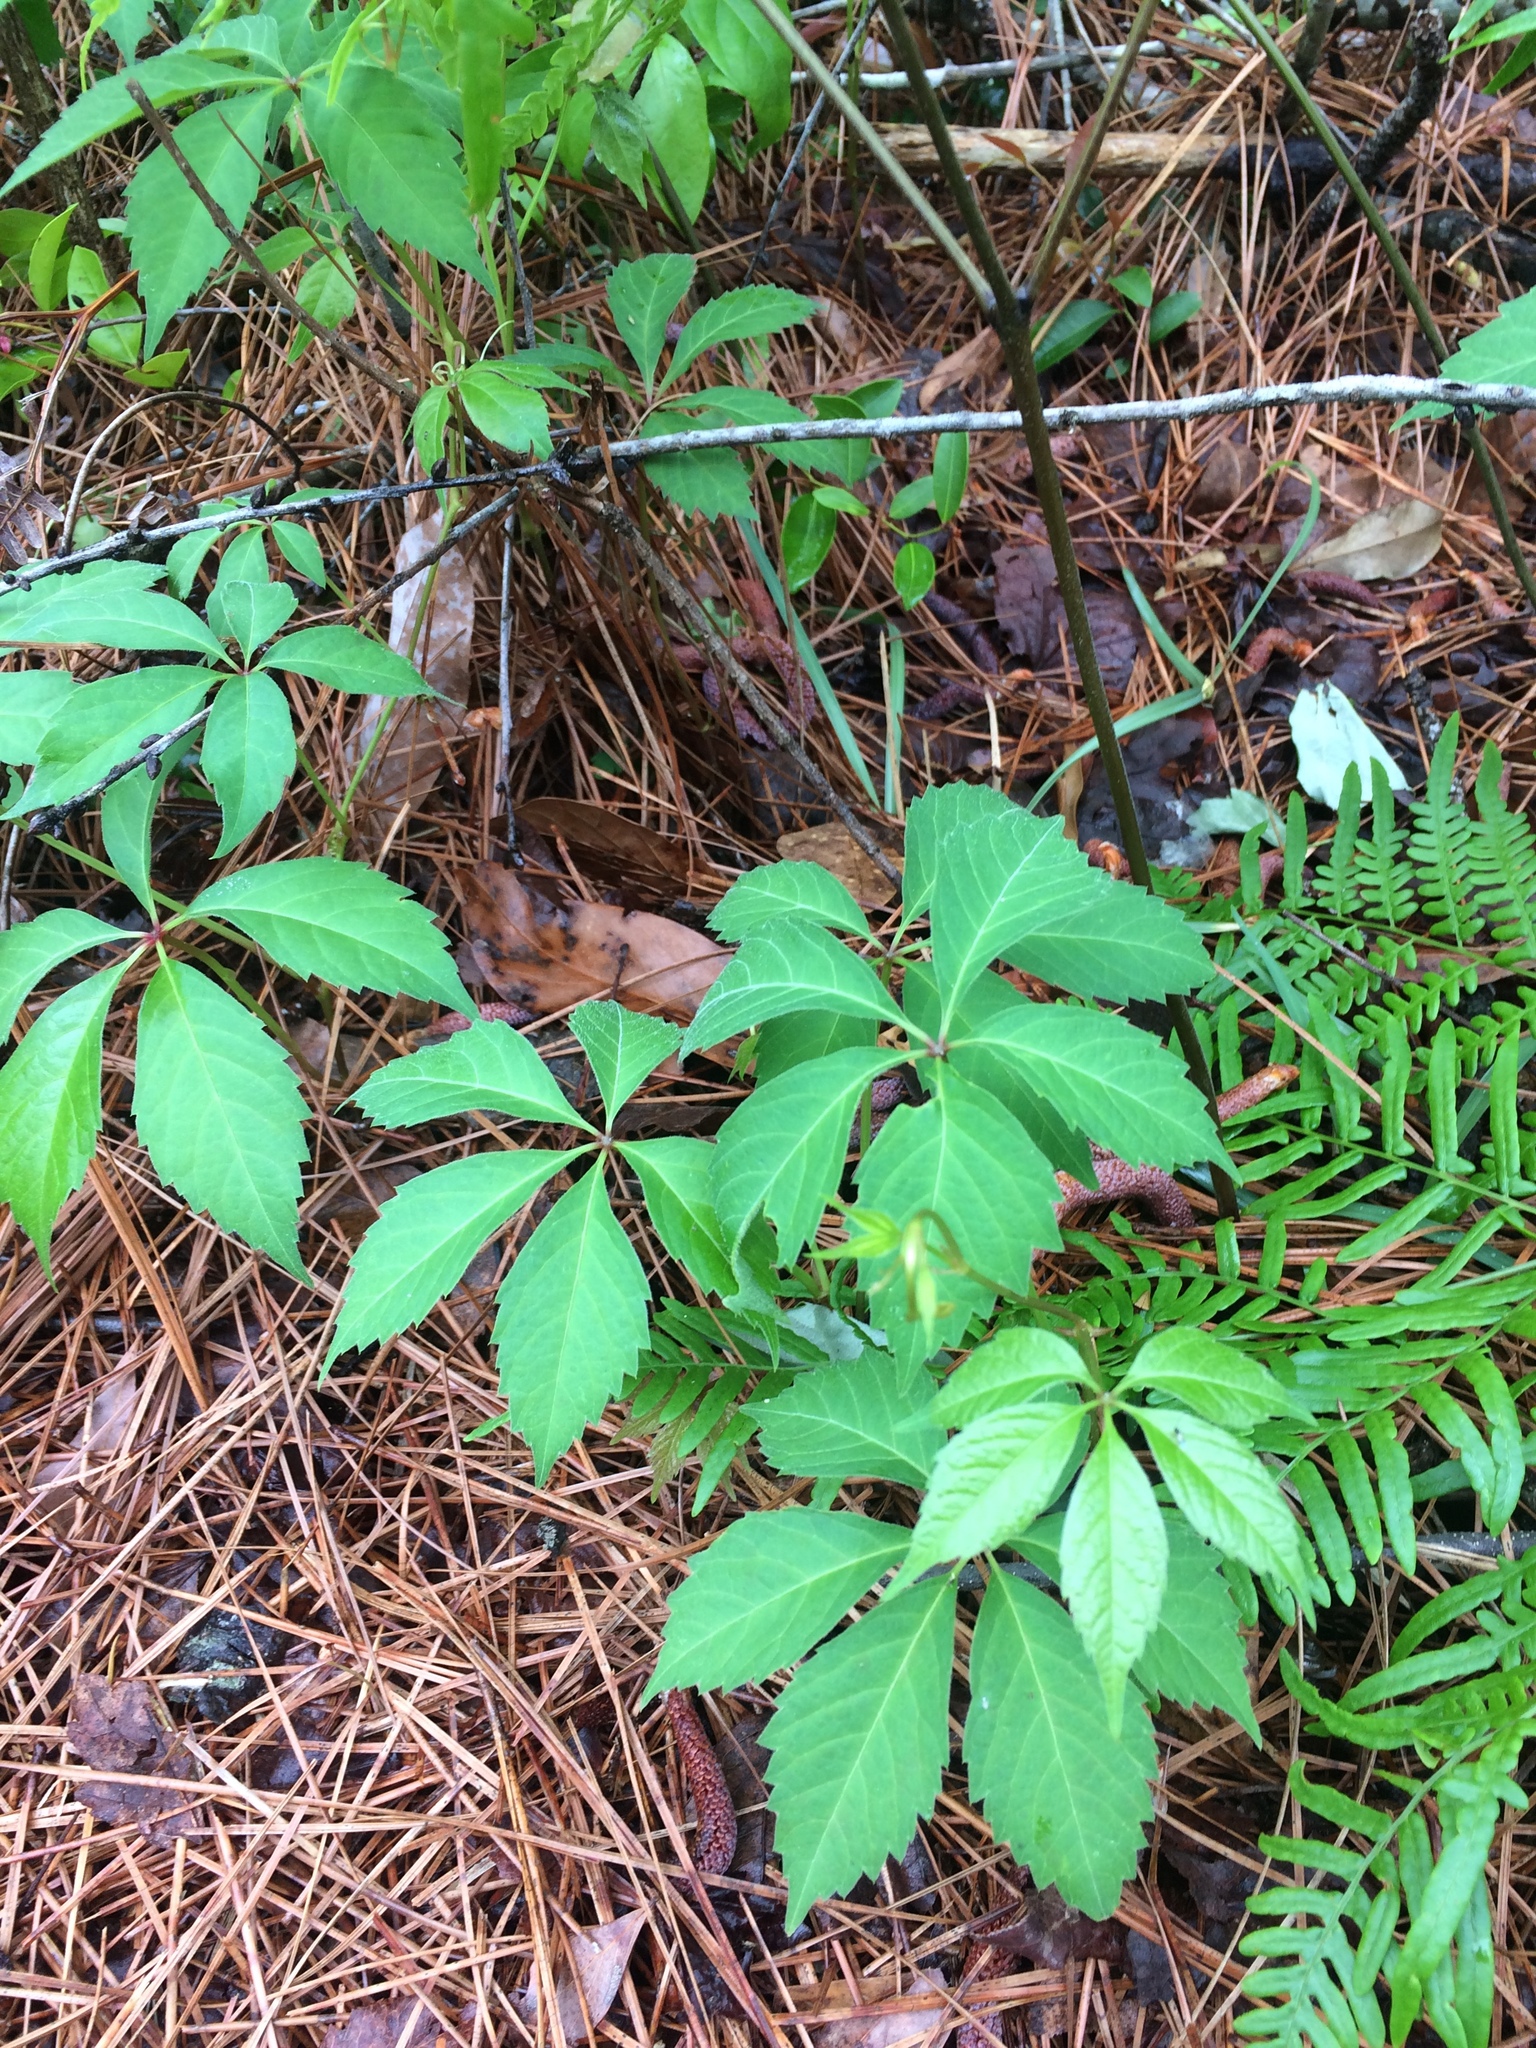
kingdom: Plantae
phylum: Tracheophyta
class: Magnoliopsida
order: Vitales
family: Vitaceae
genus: Parthenocissus
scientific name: Parthenocissus quinquefolia
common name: Virginia-creeper
